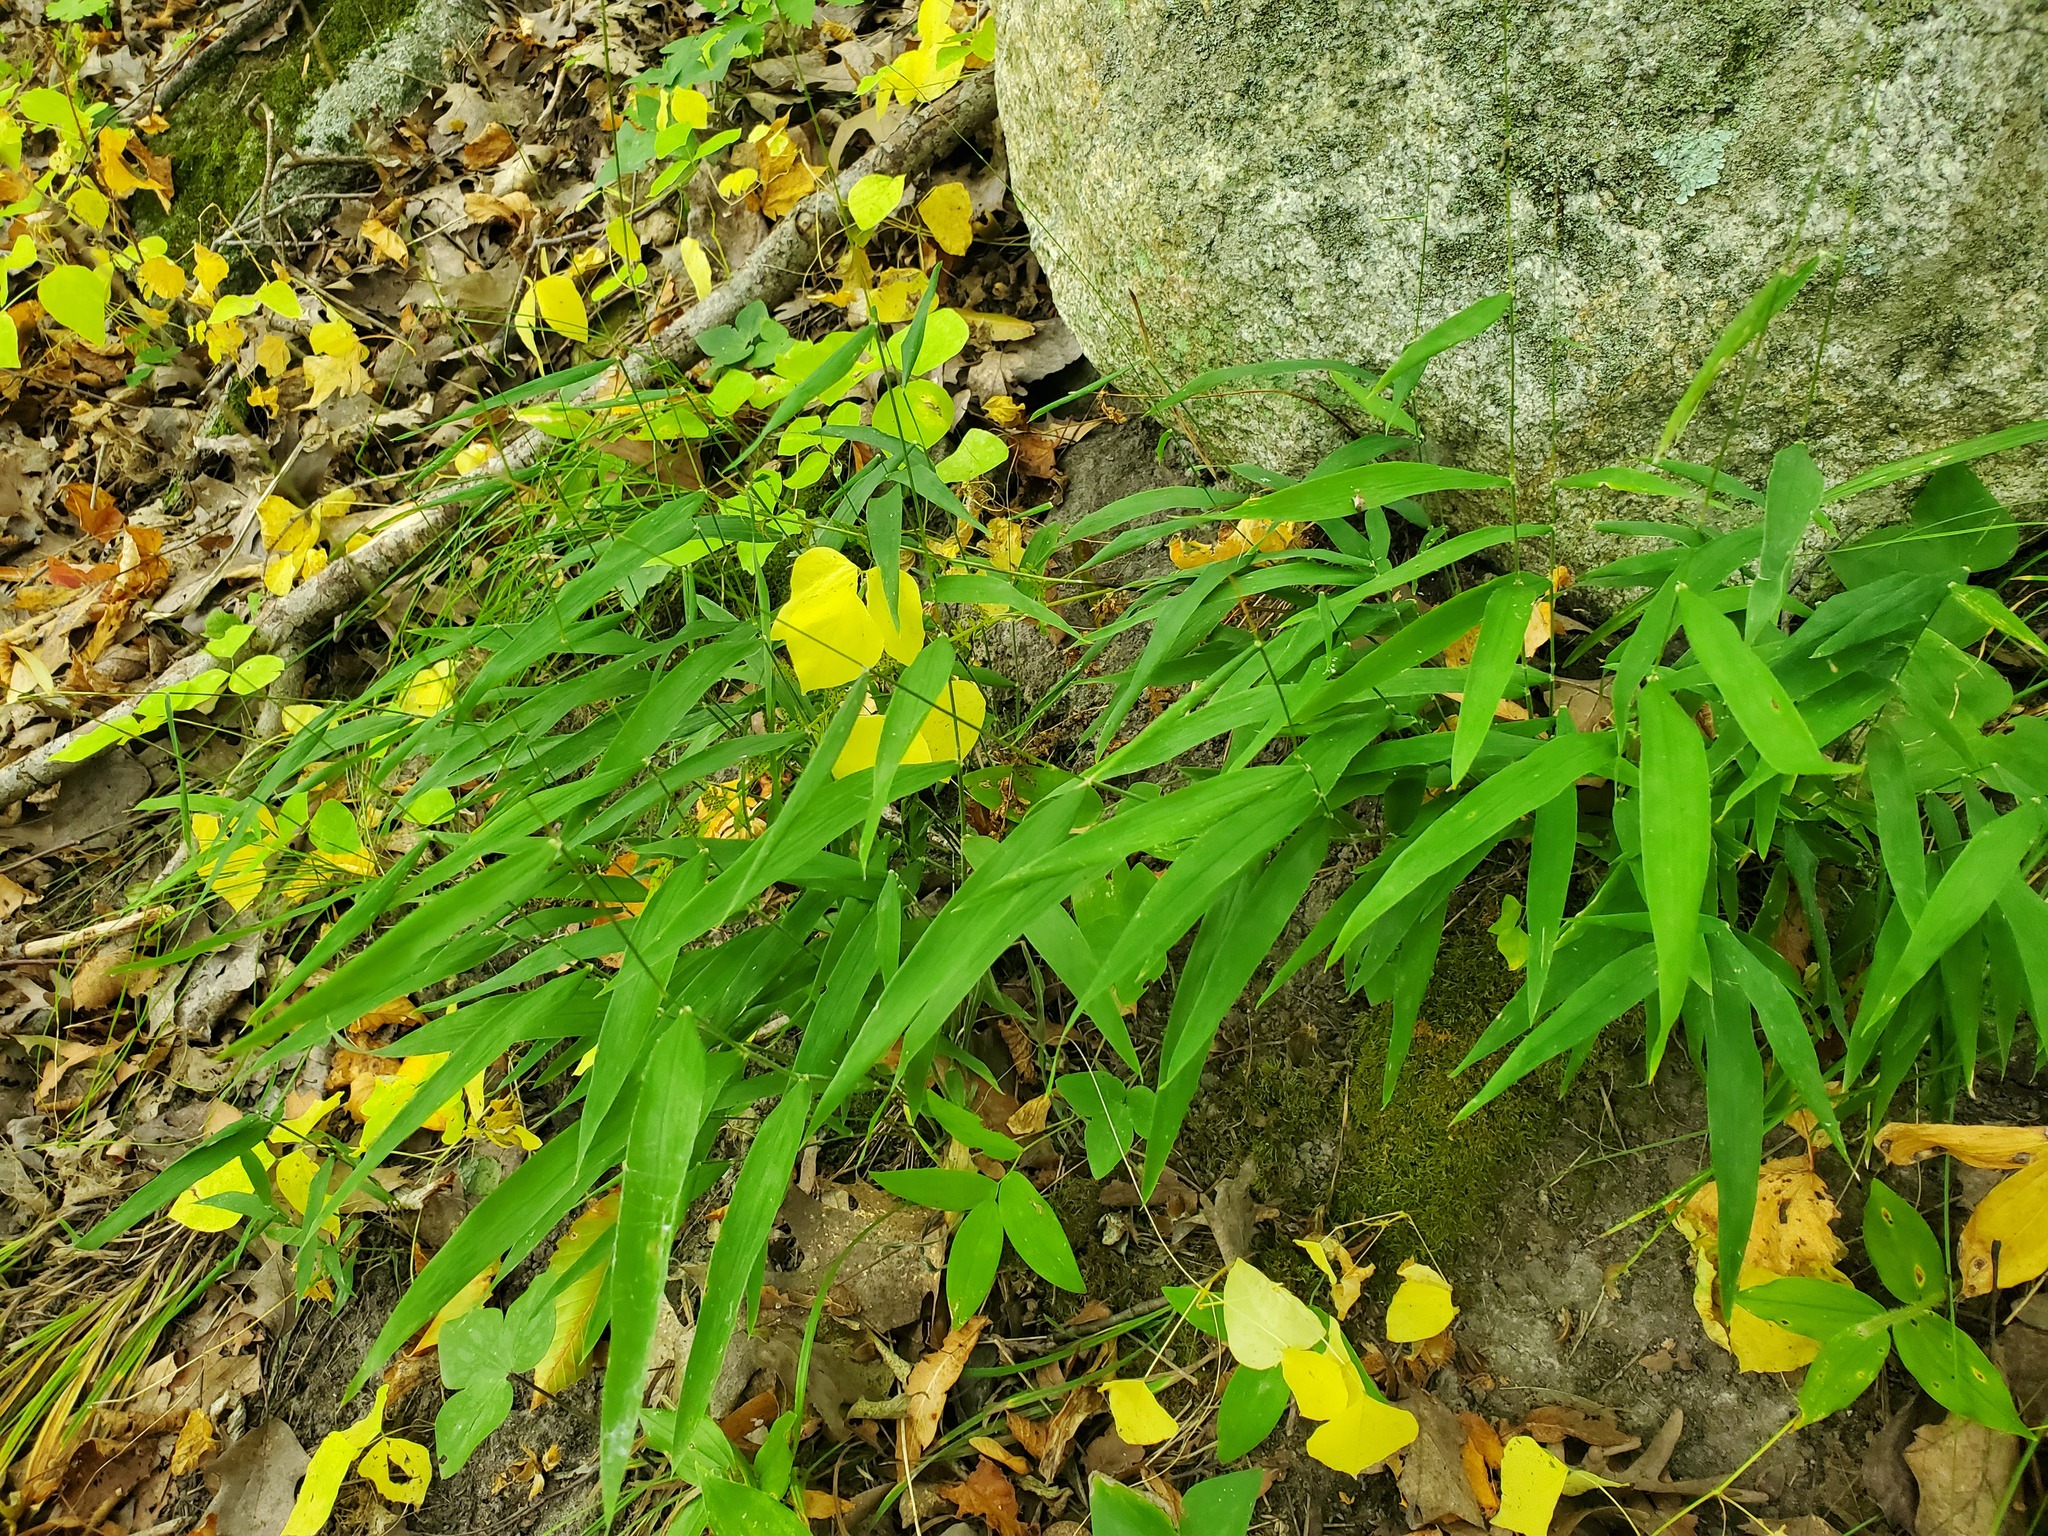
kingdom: Plantae
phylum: Tracheophyta
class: Liliopsida
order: Poales
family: Poaceae
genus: Brachyelytrum
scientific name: Brachyelytrum erectum
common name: Bearded shorthusk
